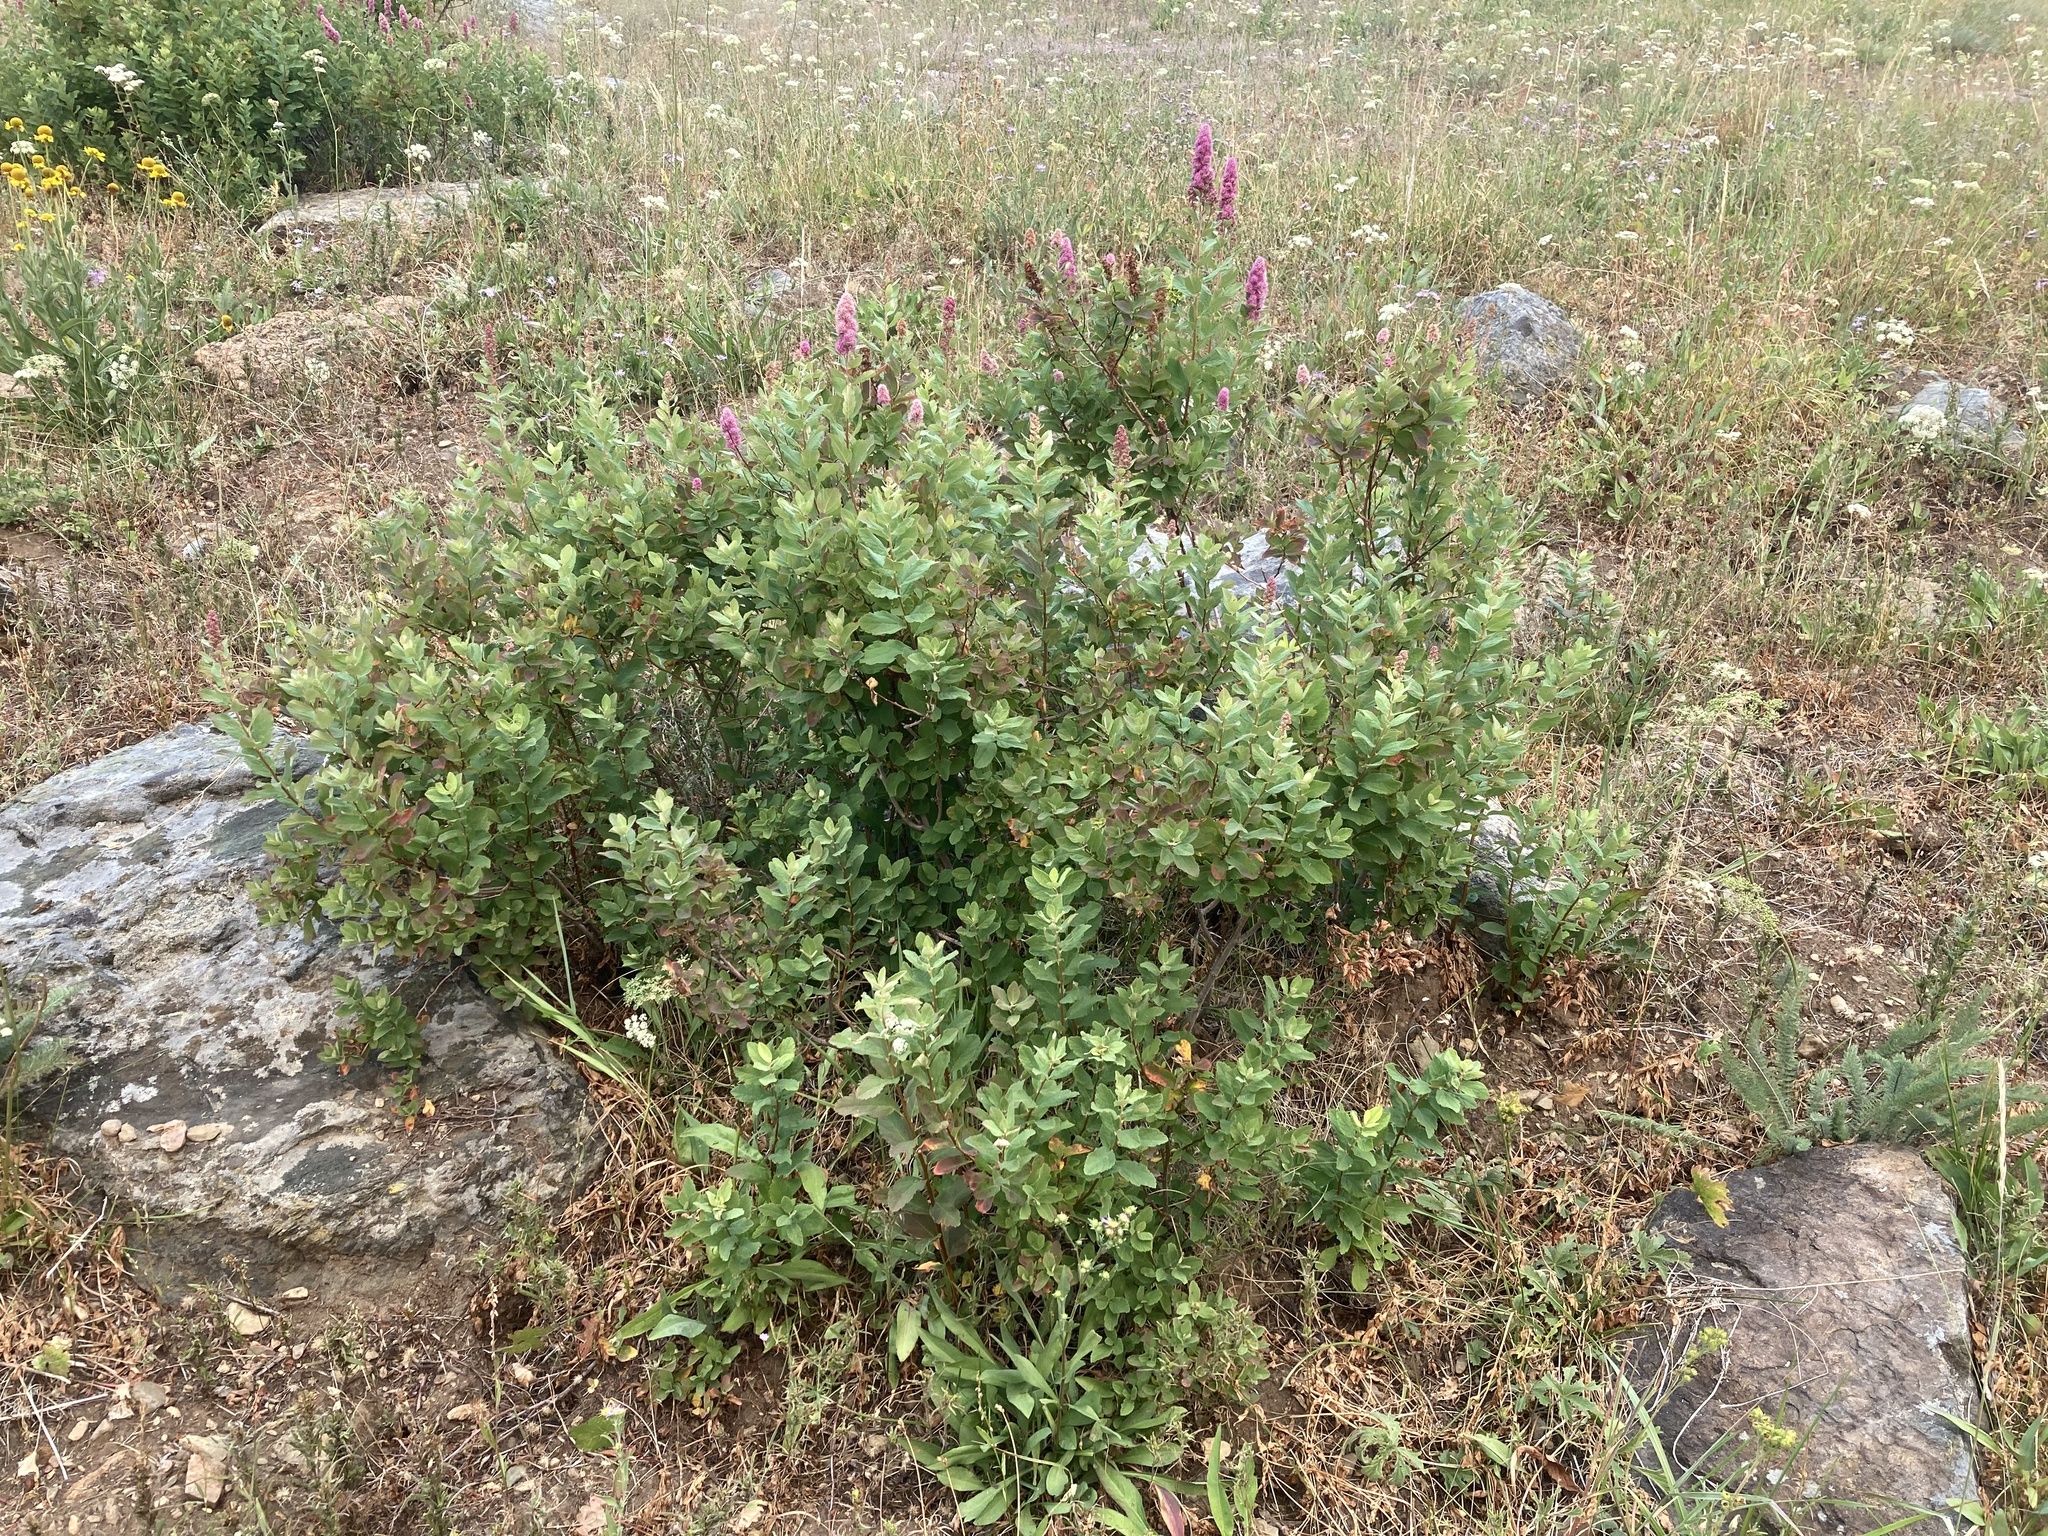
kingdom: Plantae
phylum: Tracheophyta
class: Magnoliopsida
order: Rosales
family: Rosaceae
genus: Spiraea
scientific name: Spiraea douglasii
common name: Steeplebush
